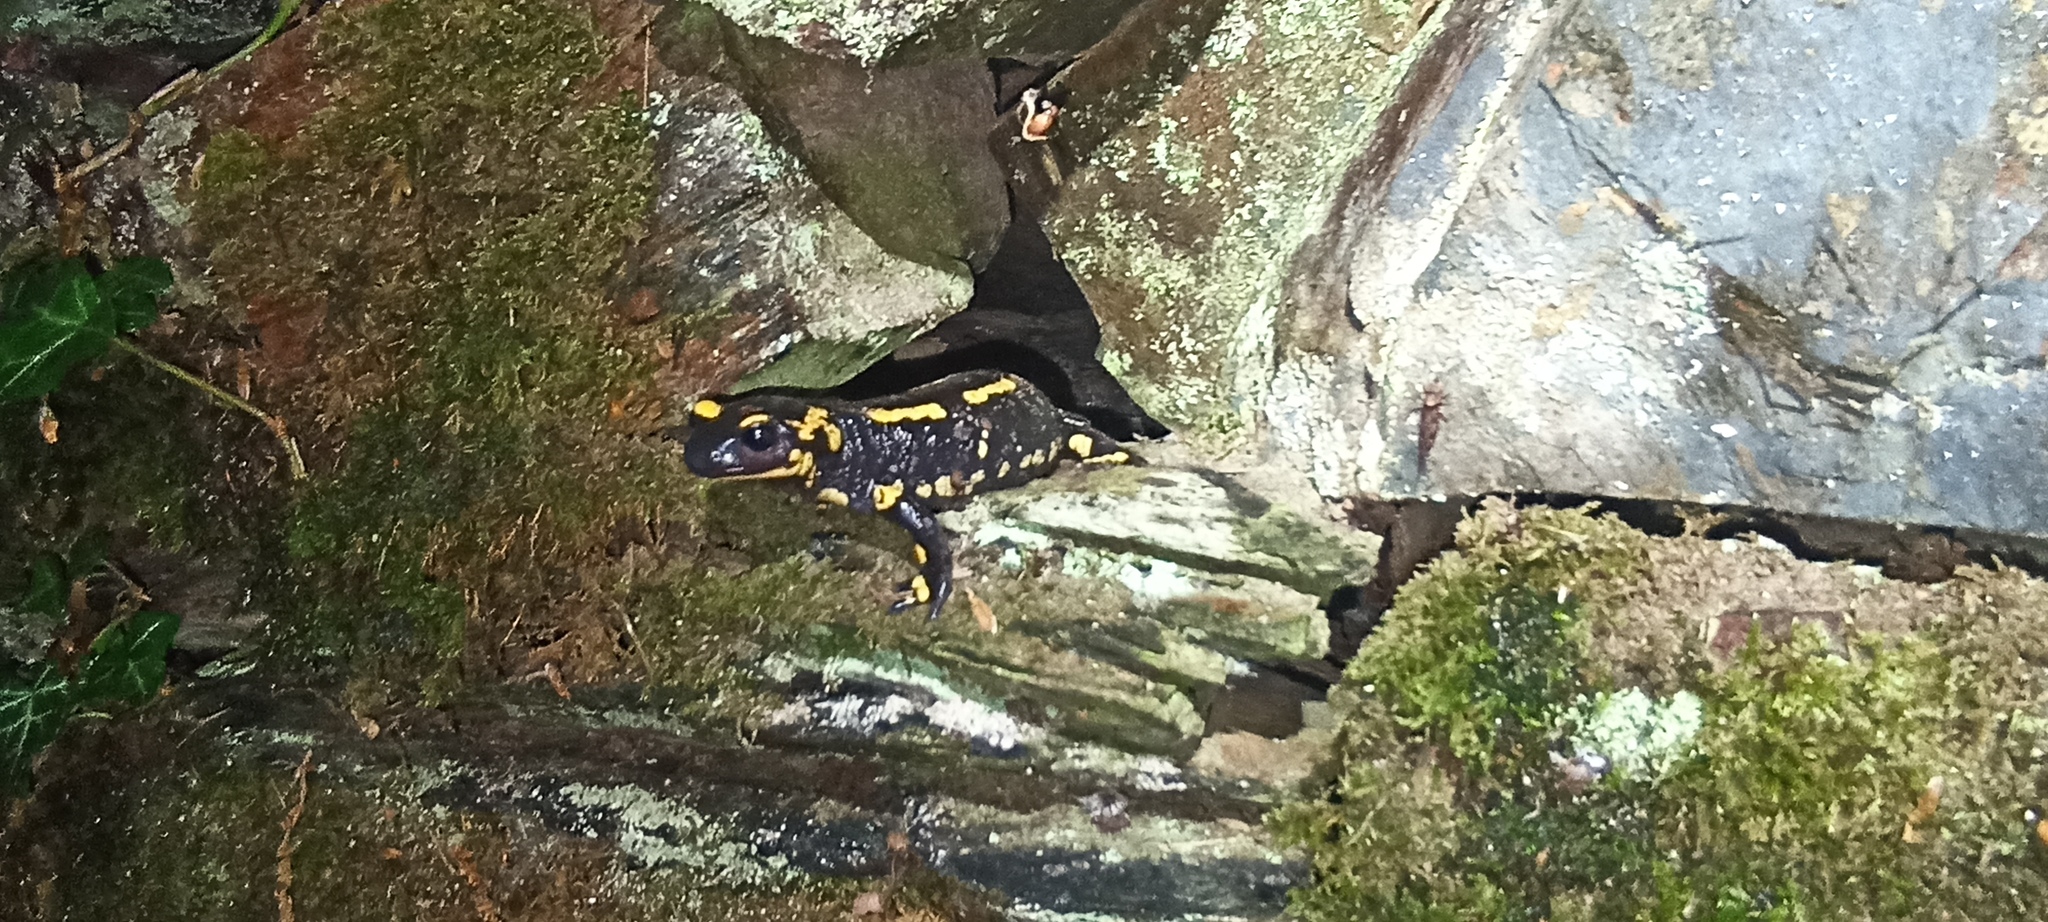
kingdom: Animalia
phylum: Chordata
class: Amphibia
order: Caudata
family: Salamandridae
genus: Salamandra
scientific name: Salamandra salamandra
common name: Fire salamander
